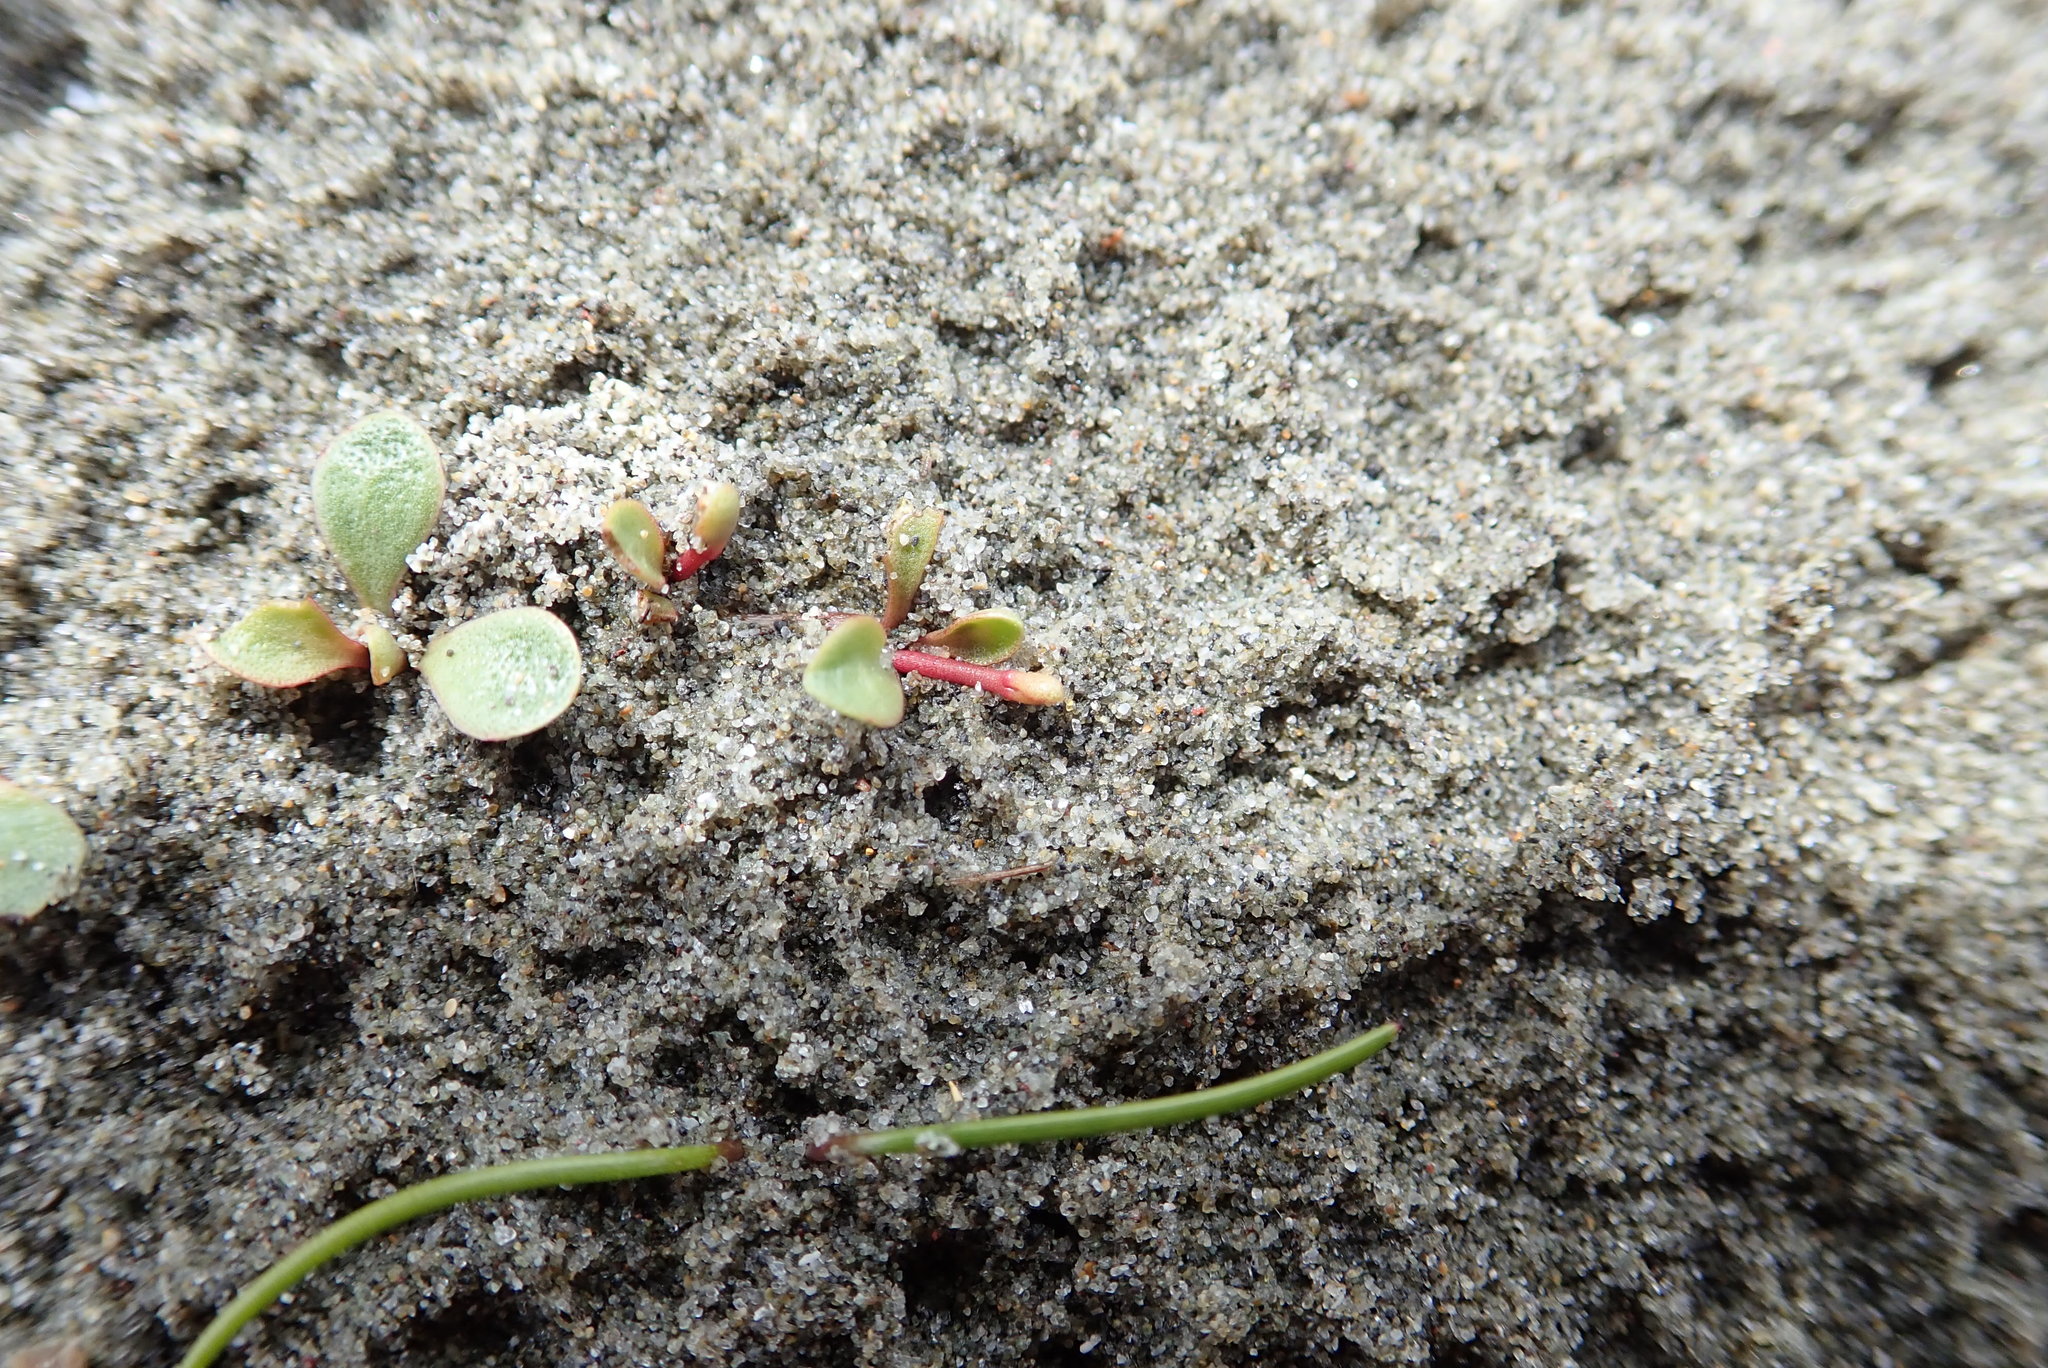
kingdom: Plantae
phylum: Tracheophyta
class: Magnoliopsida
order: Ericales
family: Primulaceae
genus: Samolus
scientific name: Samolus repens
